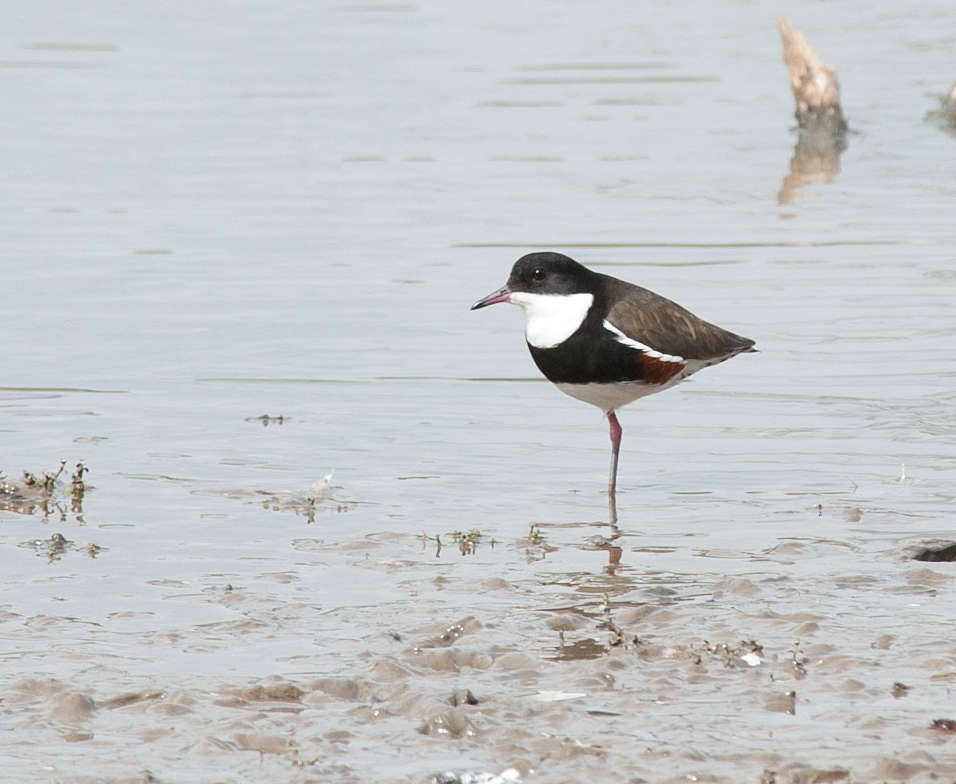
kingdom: Animalia
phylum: Chordata
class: Aves
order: Charadriiformes
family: Charadriidae
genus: Erythrogonys
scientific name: Erythrogonys cinctus
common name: Red-kneed dotterel
